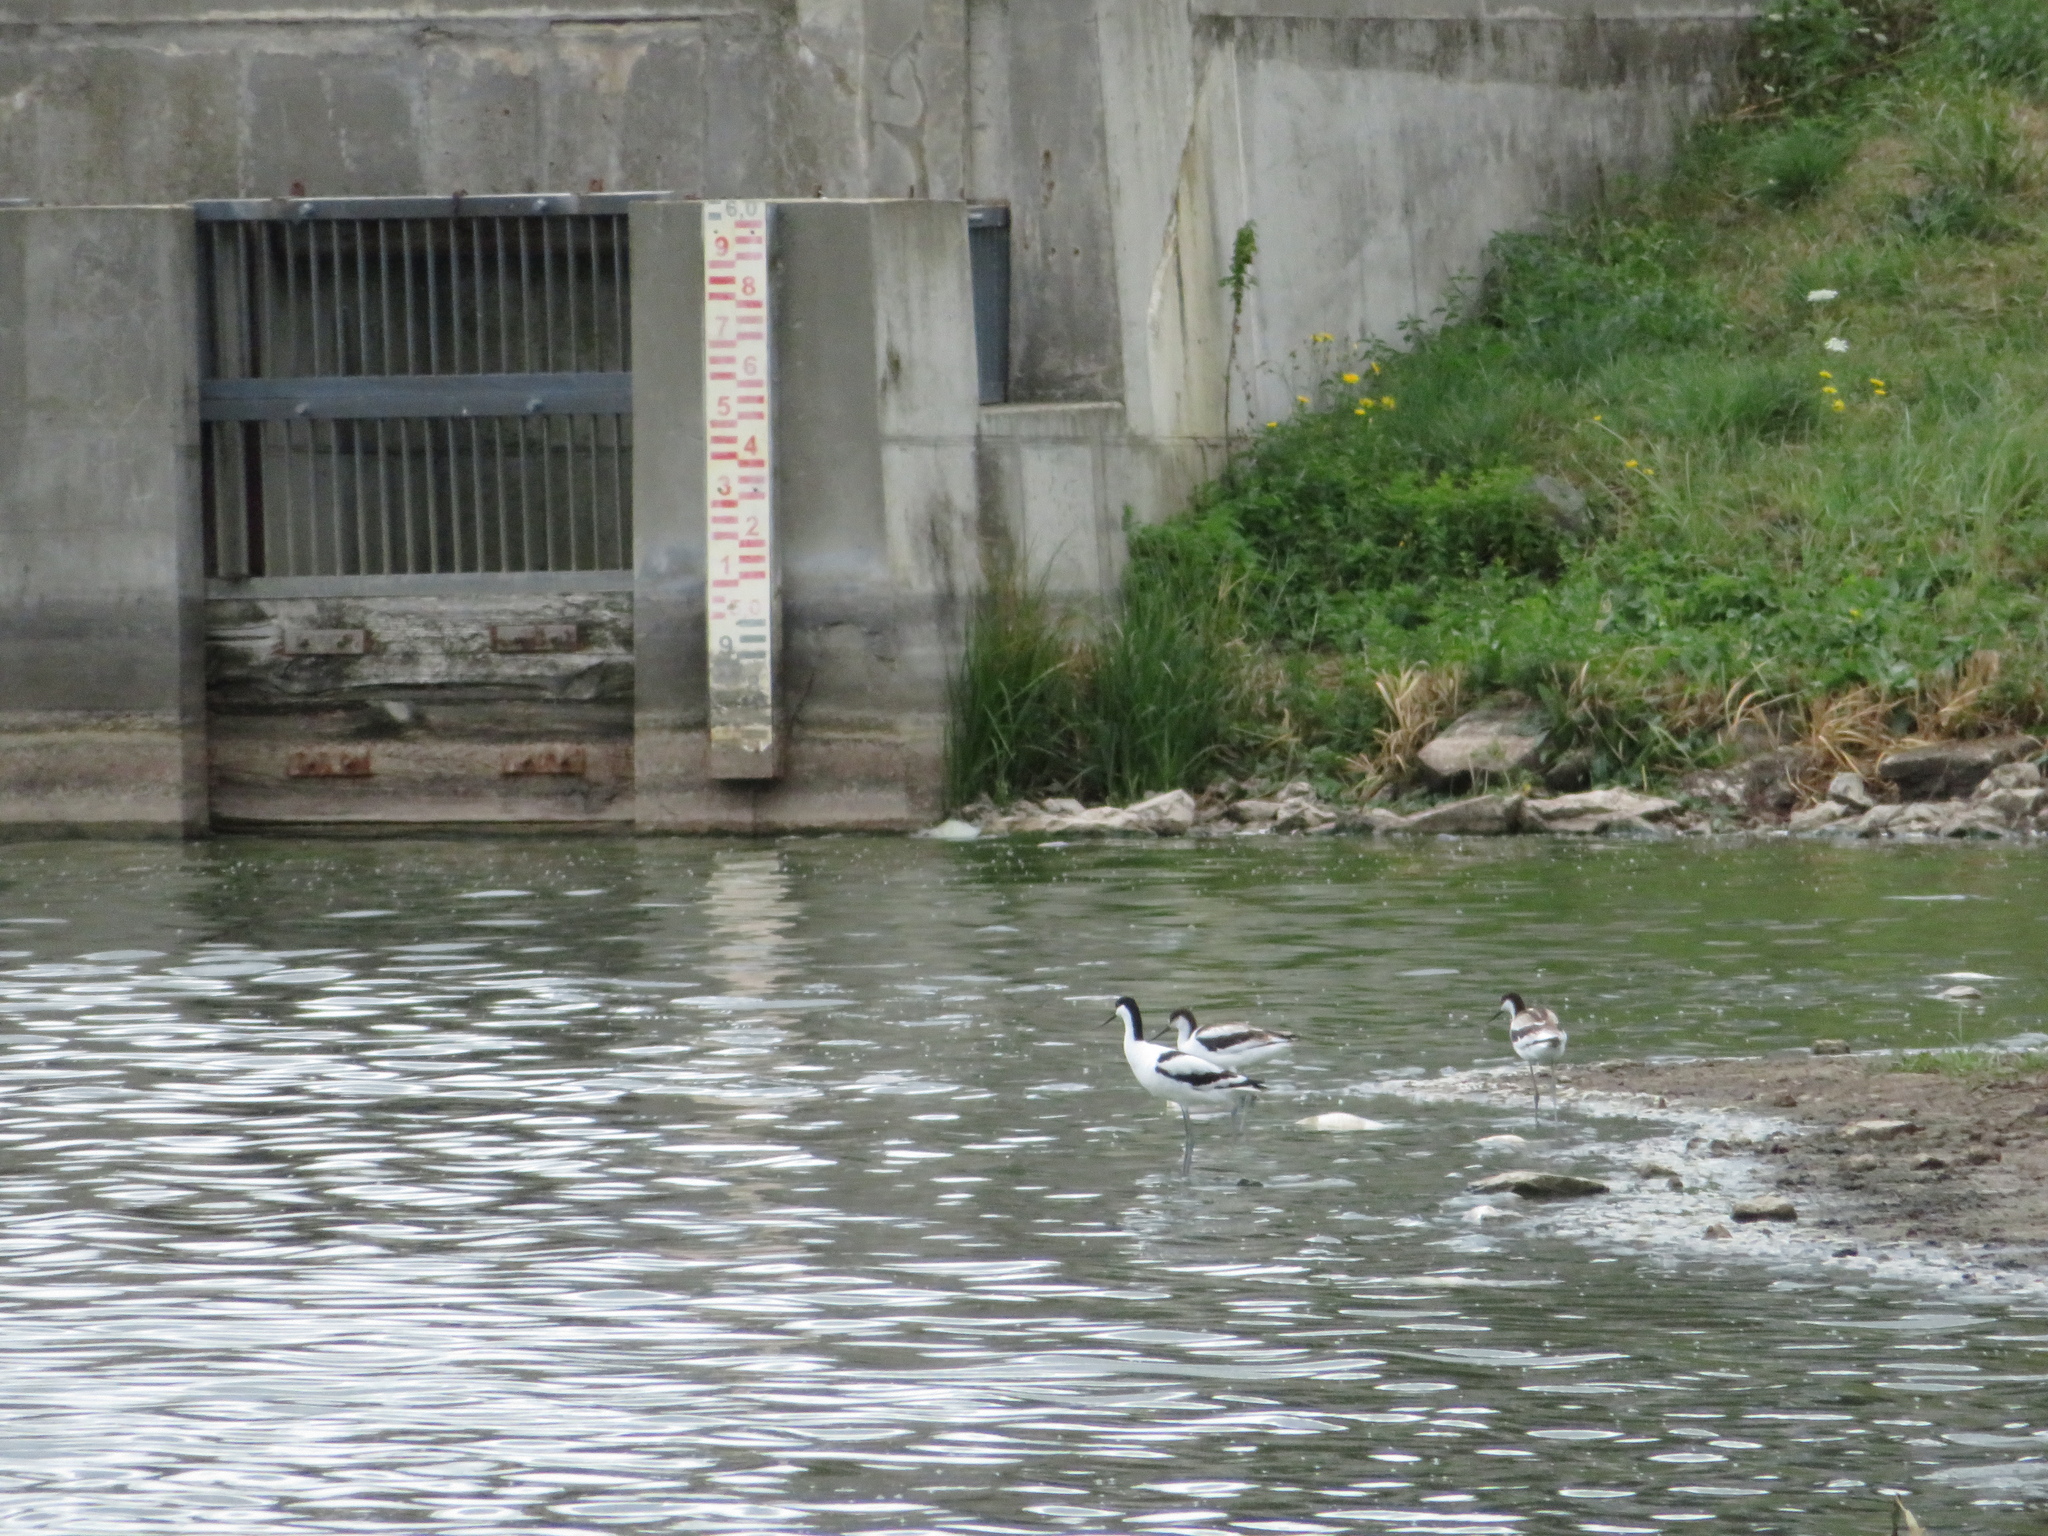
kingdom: Animalia
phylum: Chordata
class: Aves
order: Charadriiformes
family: Recurvirostridae
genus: Recurvirostra
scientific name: Recurvirostra avosetta
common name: Pied avocet
